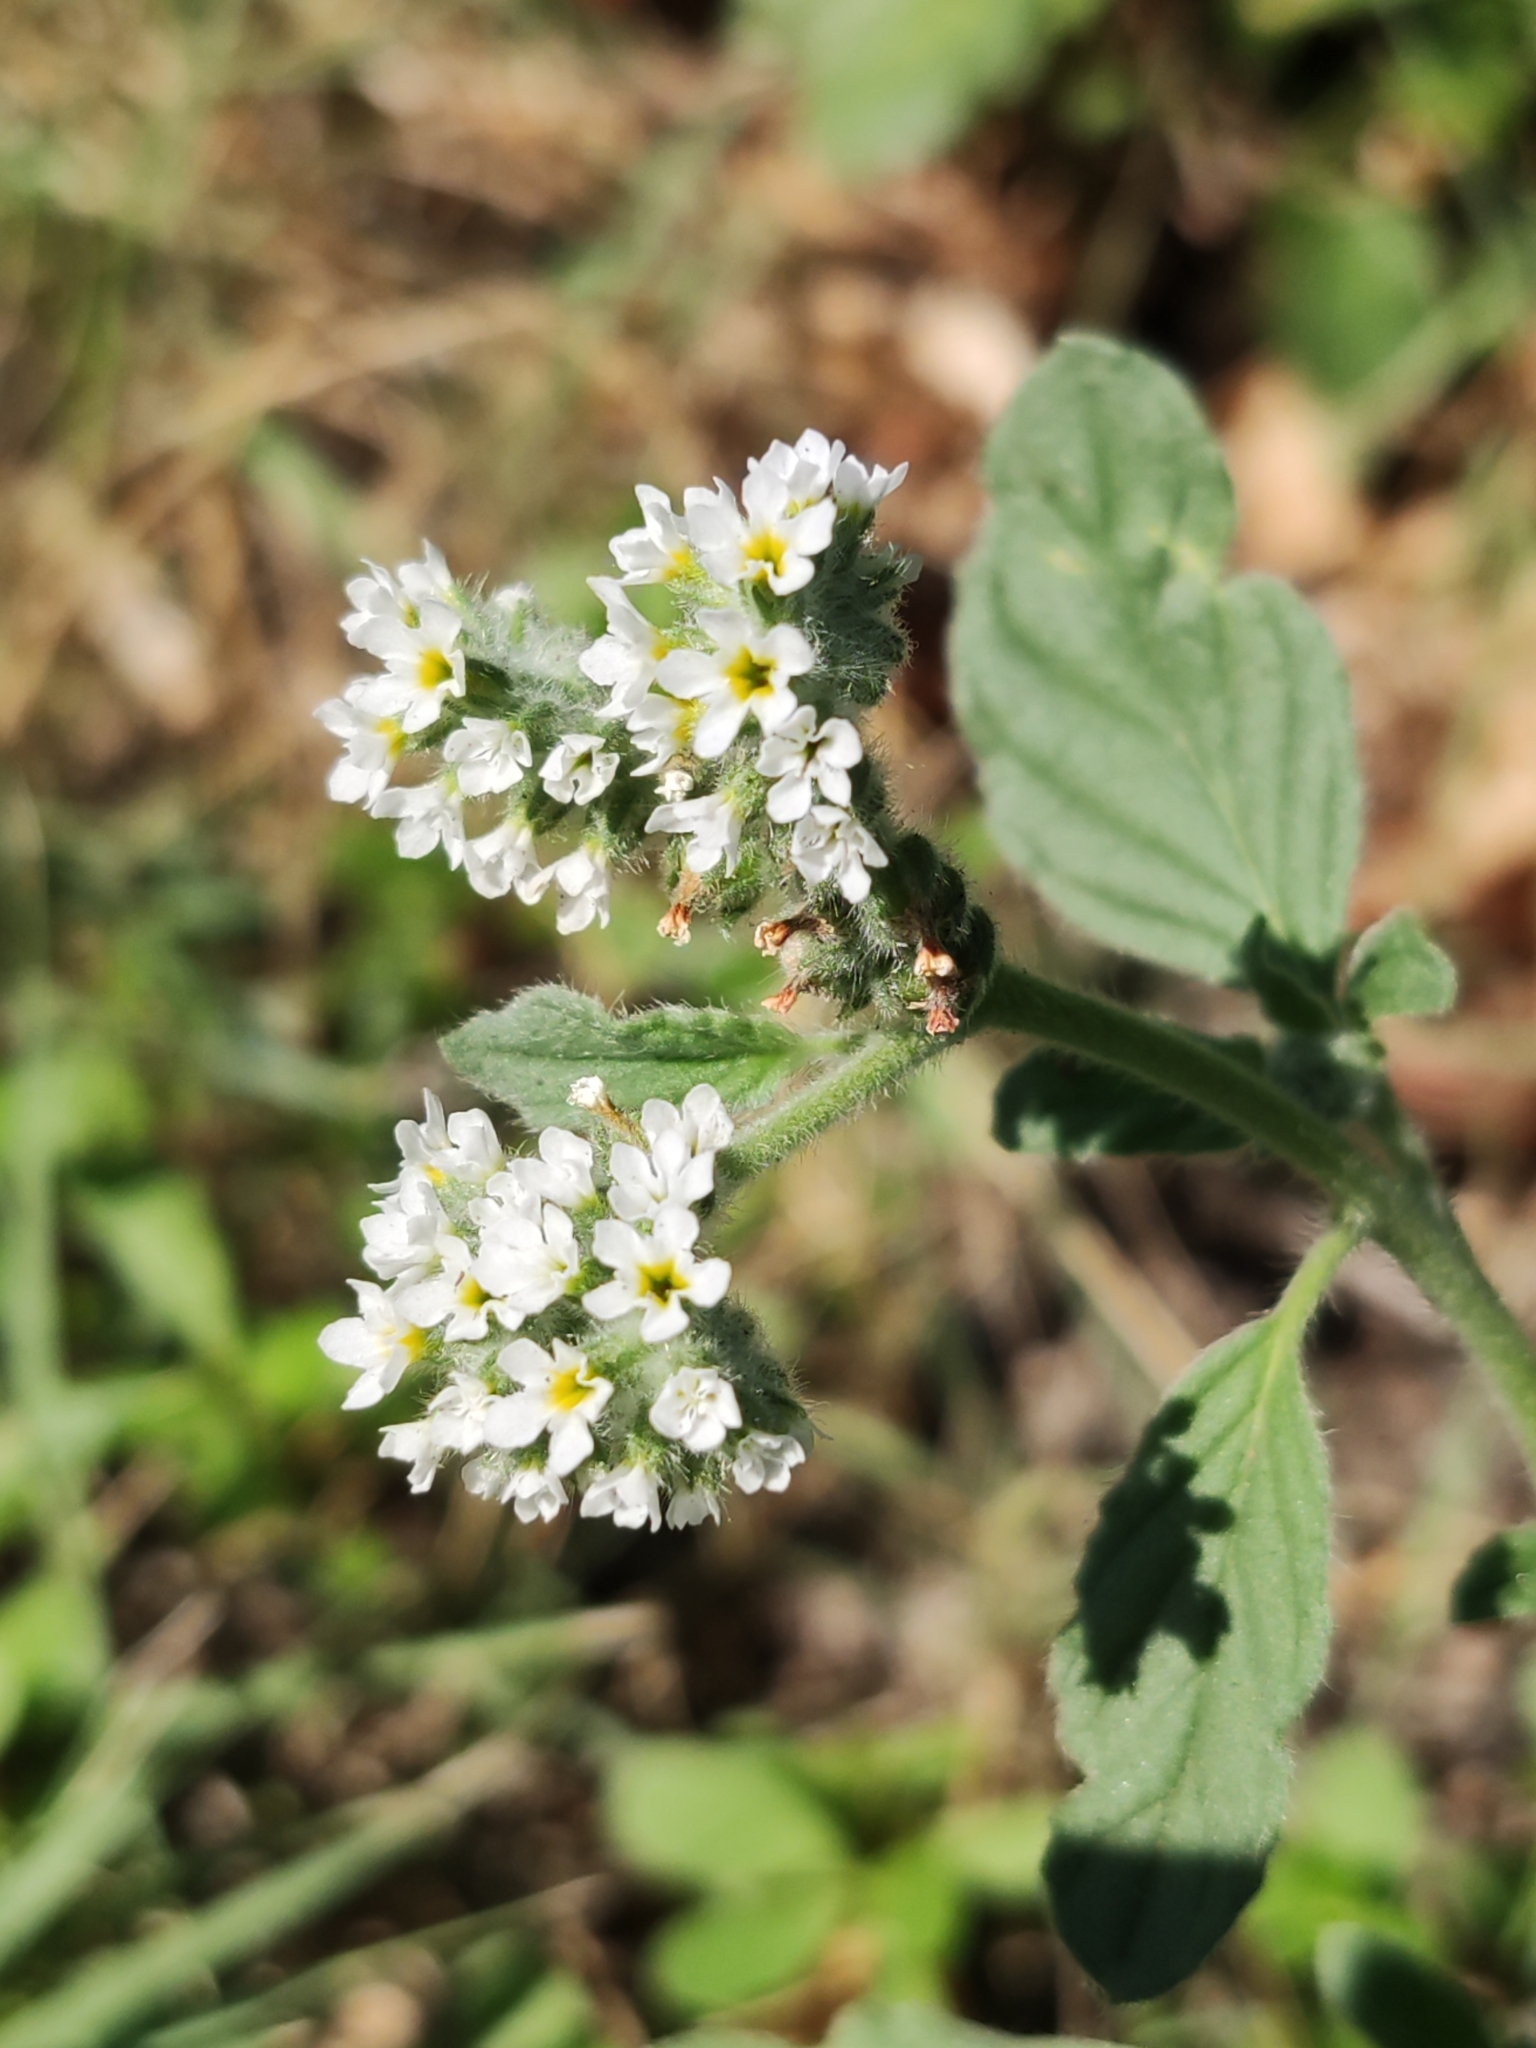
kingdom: Plantae
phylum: Tracheophyta
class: Magnoliopsida
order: Boraginales
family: Heliotropiaceae
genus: Heliotropium
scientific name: Heliotropium europaeum
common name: European heliotrope
